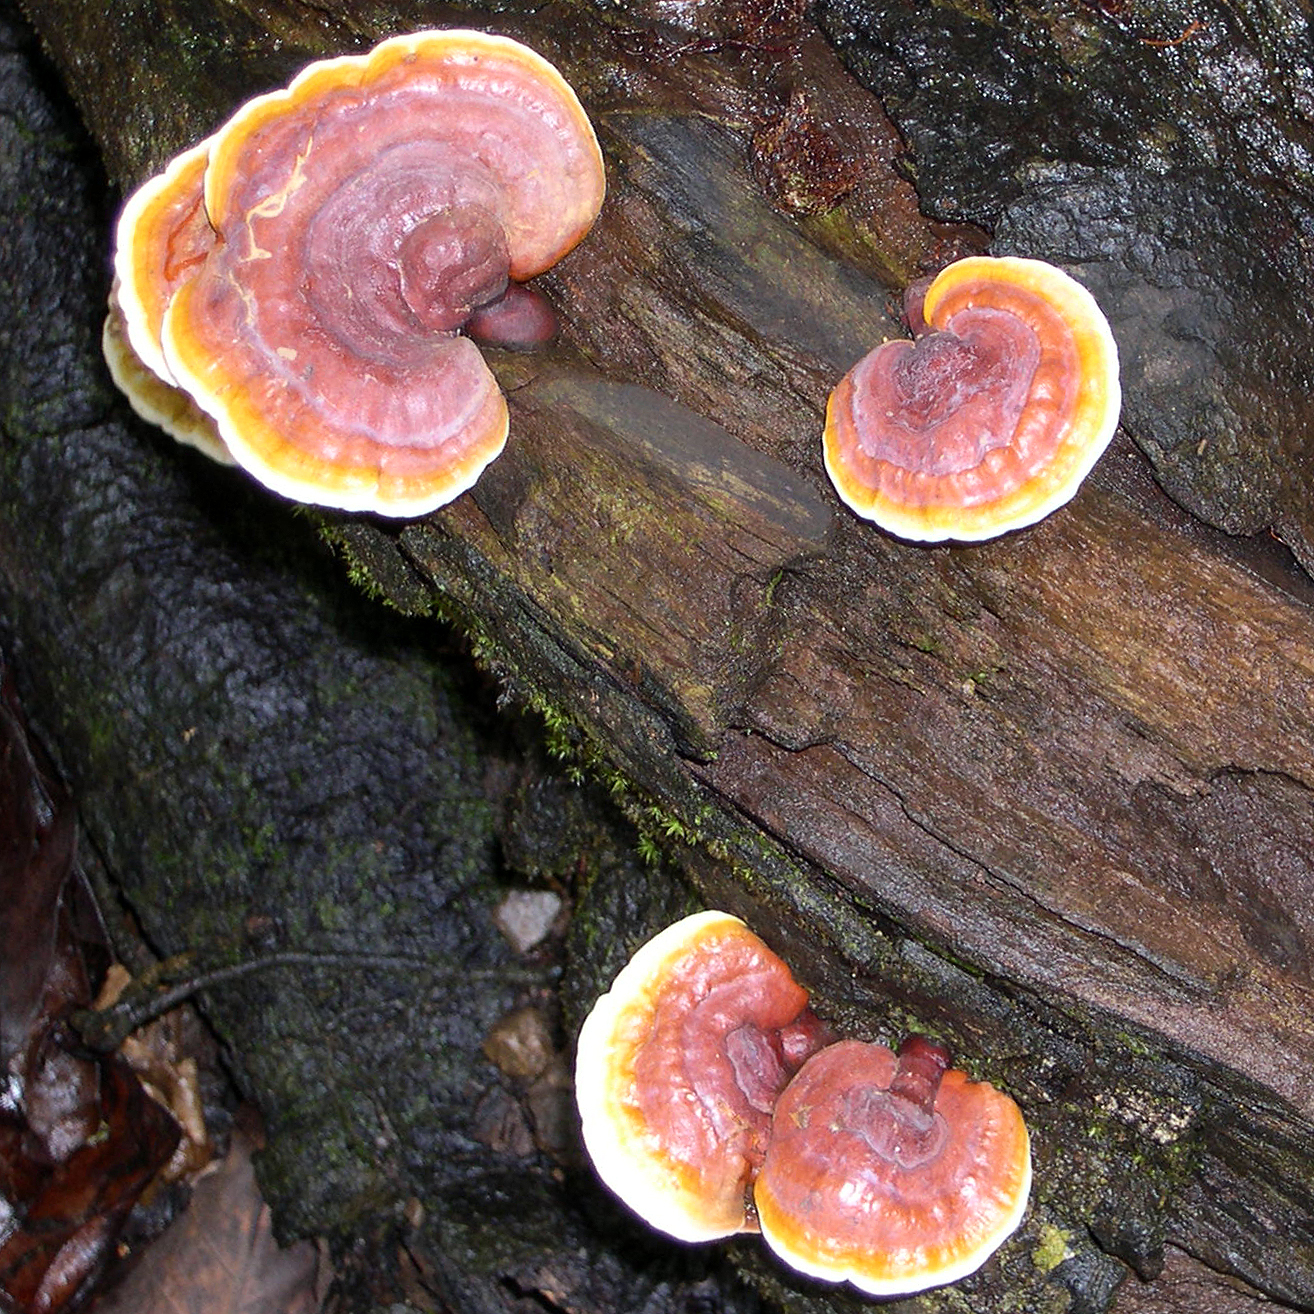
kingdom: Fungi
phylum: Basidiomycota
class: Agaricomycetes
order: Polyporales
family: Polyporaceae
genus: Ganoderma
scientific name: Ganoderma stipitatum
